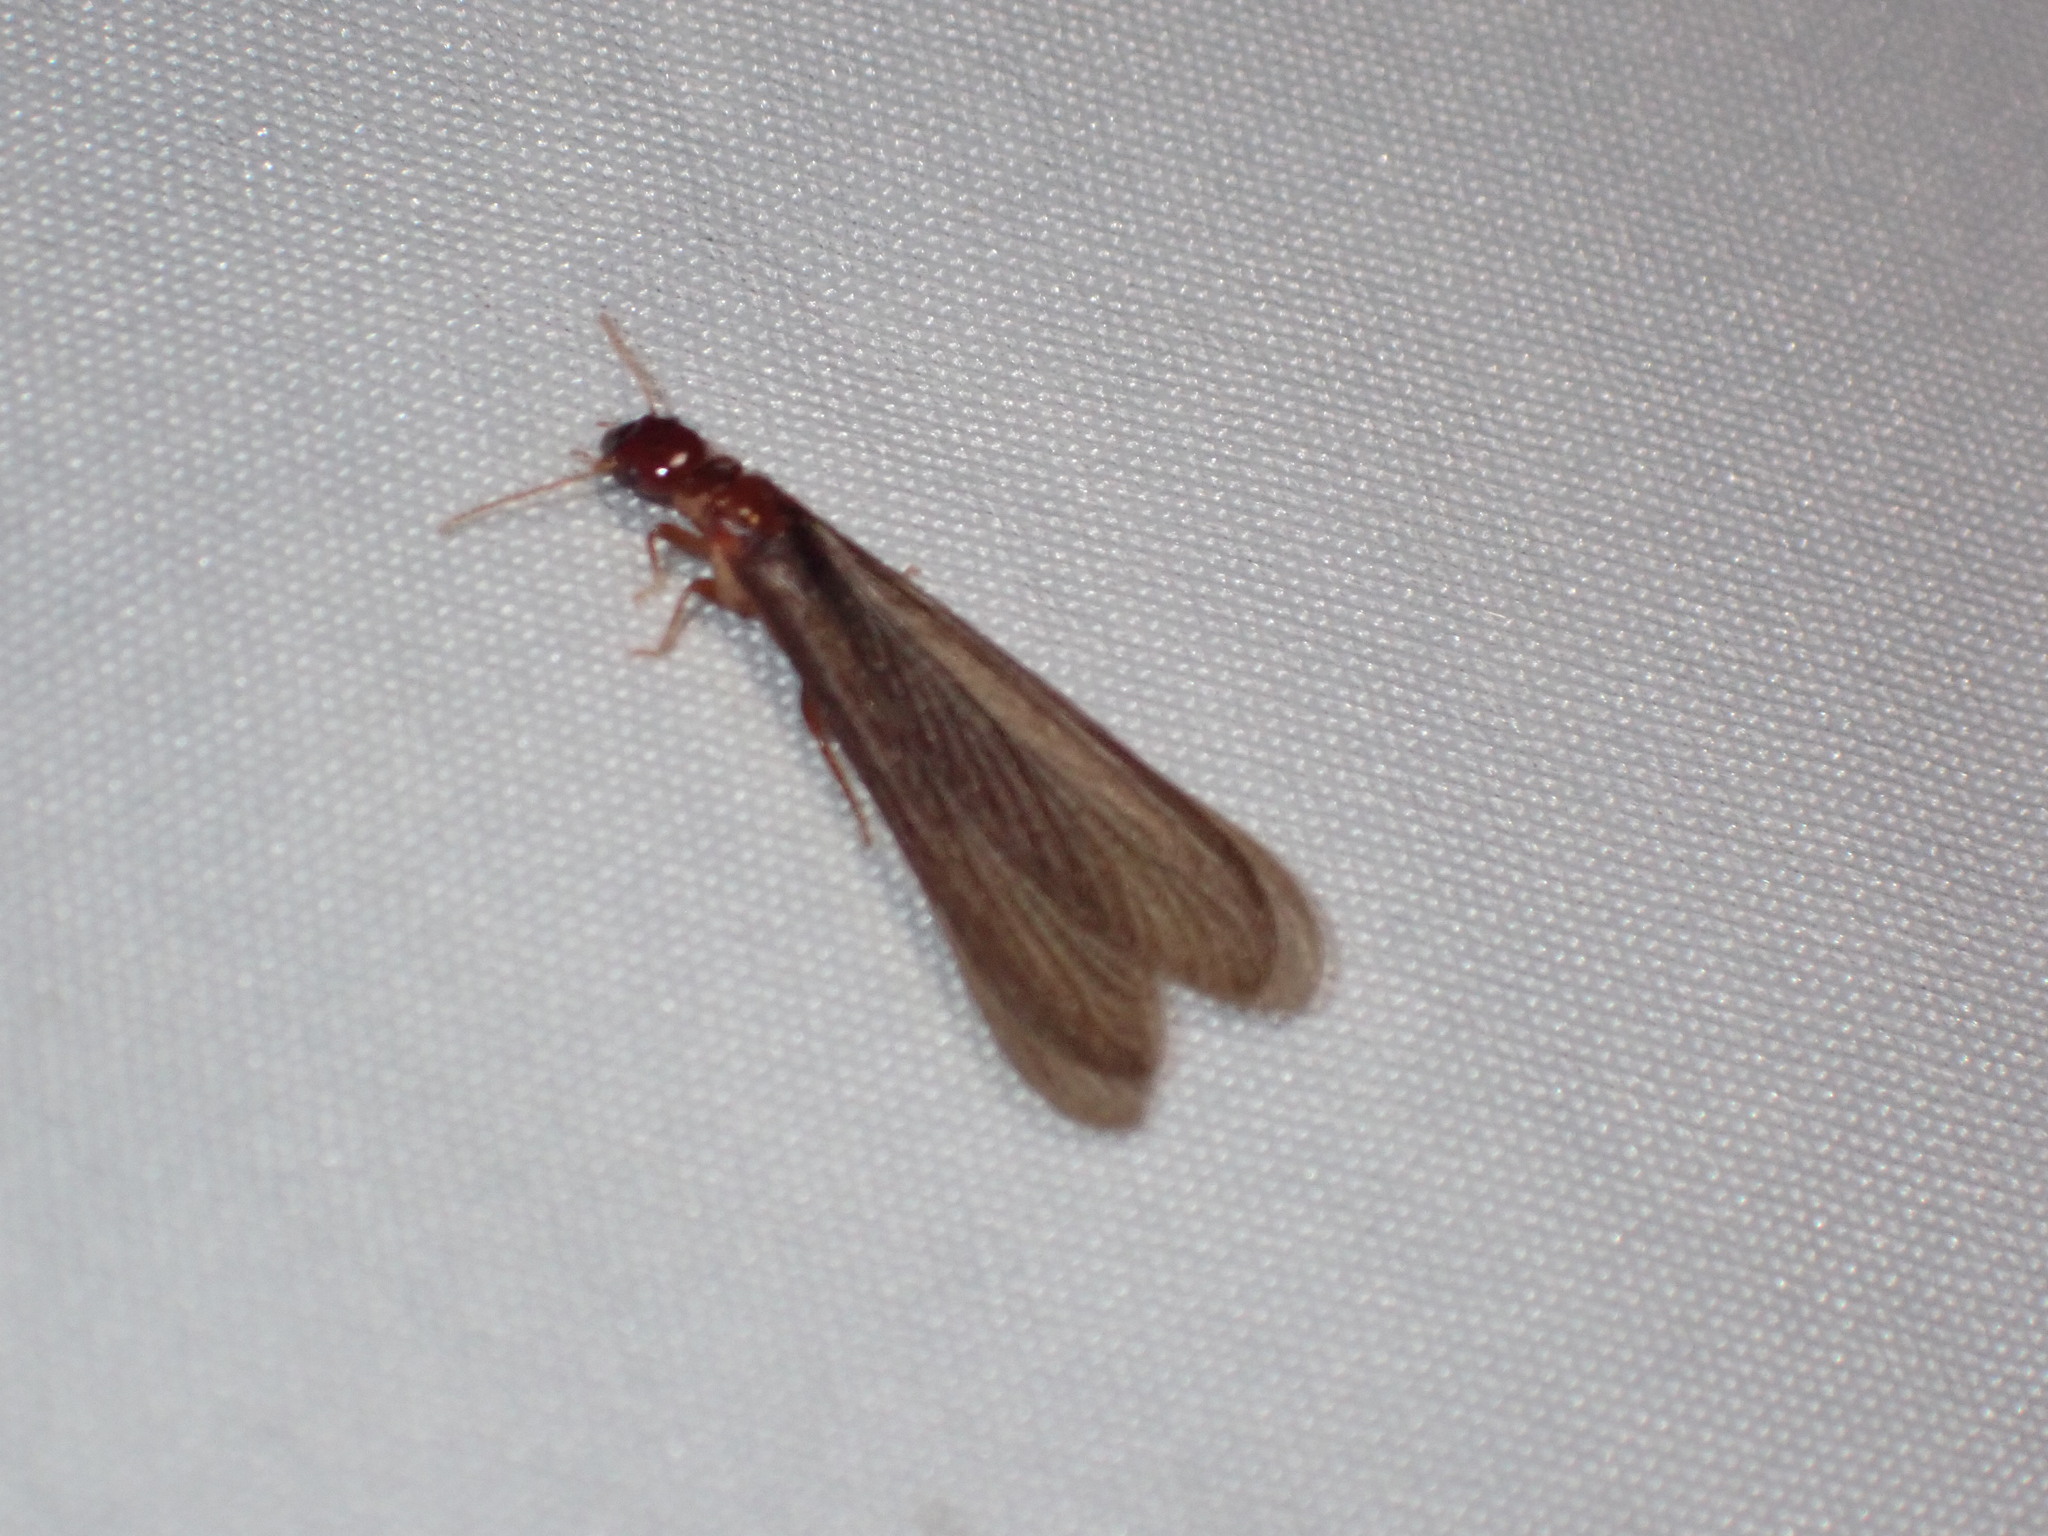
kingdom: Animalia
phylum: Arthropoda
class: Insecta
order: Blattodea
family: Archotermopsidae
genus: Zootermopsis
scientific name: Zootermopsis nevadensis
